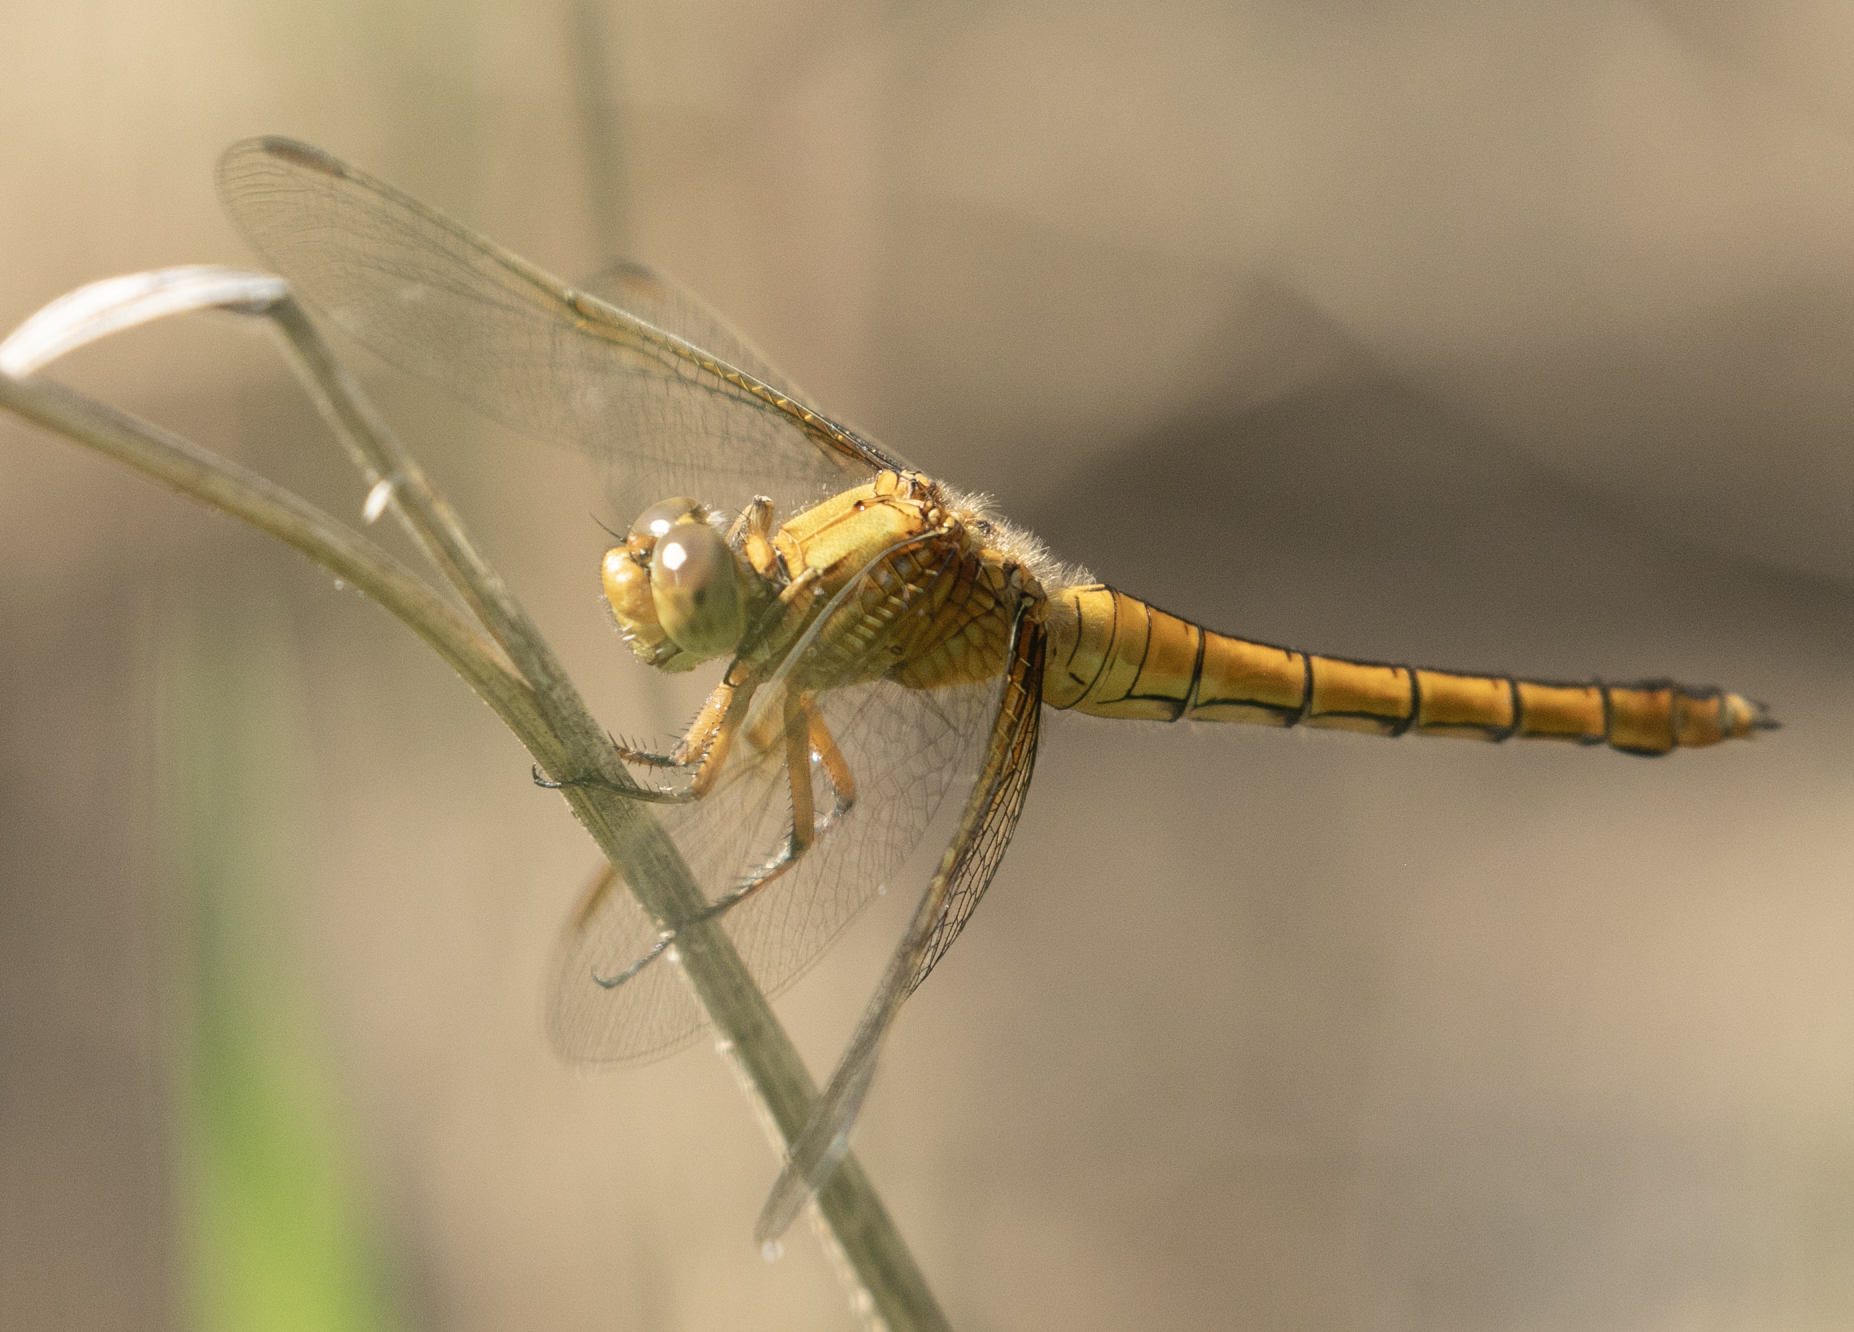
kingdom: Animalia
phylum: Arthropoda
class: Insecta
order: Odonata
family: Libellulidae
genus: Orthetrum
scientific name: Orthetrum coerulescens
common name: Keeled skimmer
